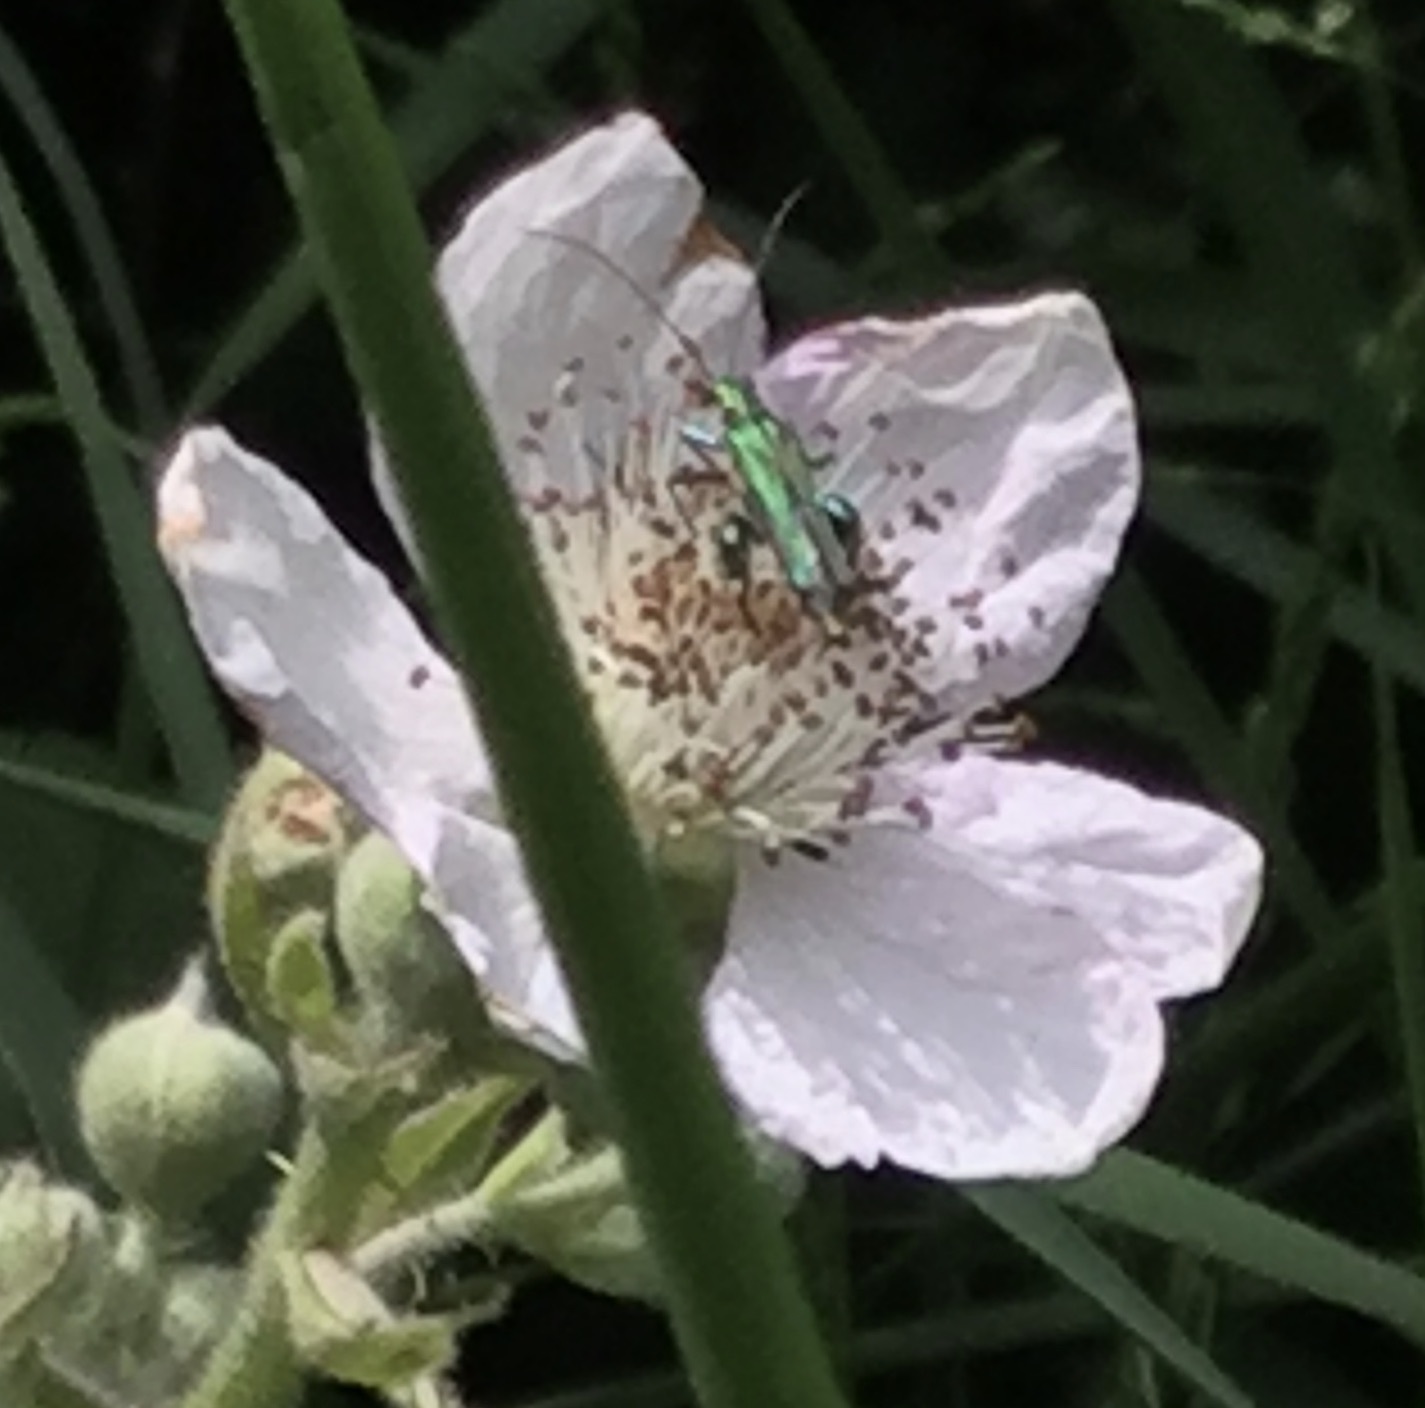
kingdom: Animalia
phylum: Arthropoda
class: Insecta
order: Coleoptera
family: Oedemeridae
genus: Oedemera
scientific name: Oedemera nobilis
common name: Swollen-thighed beetle
